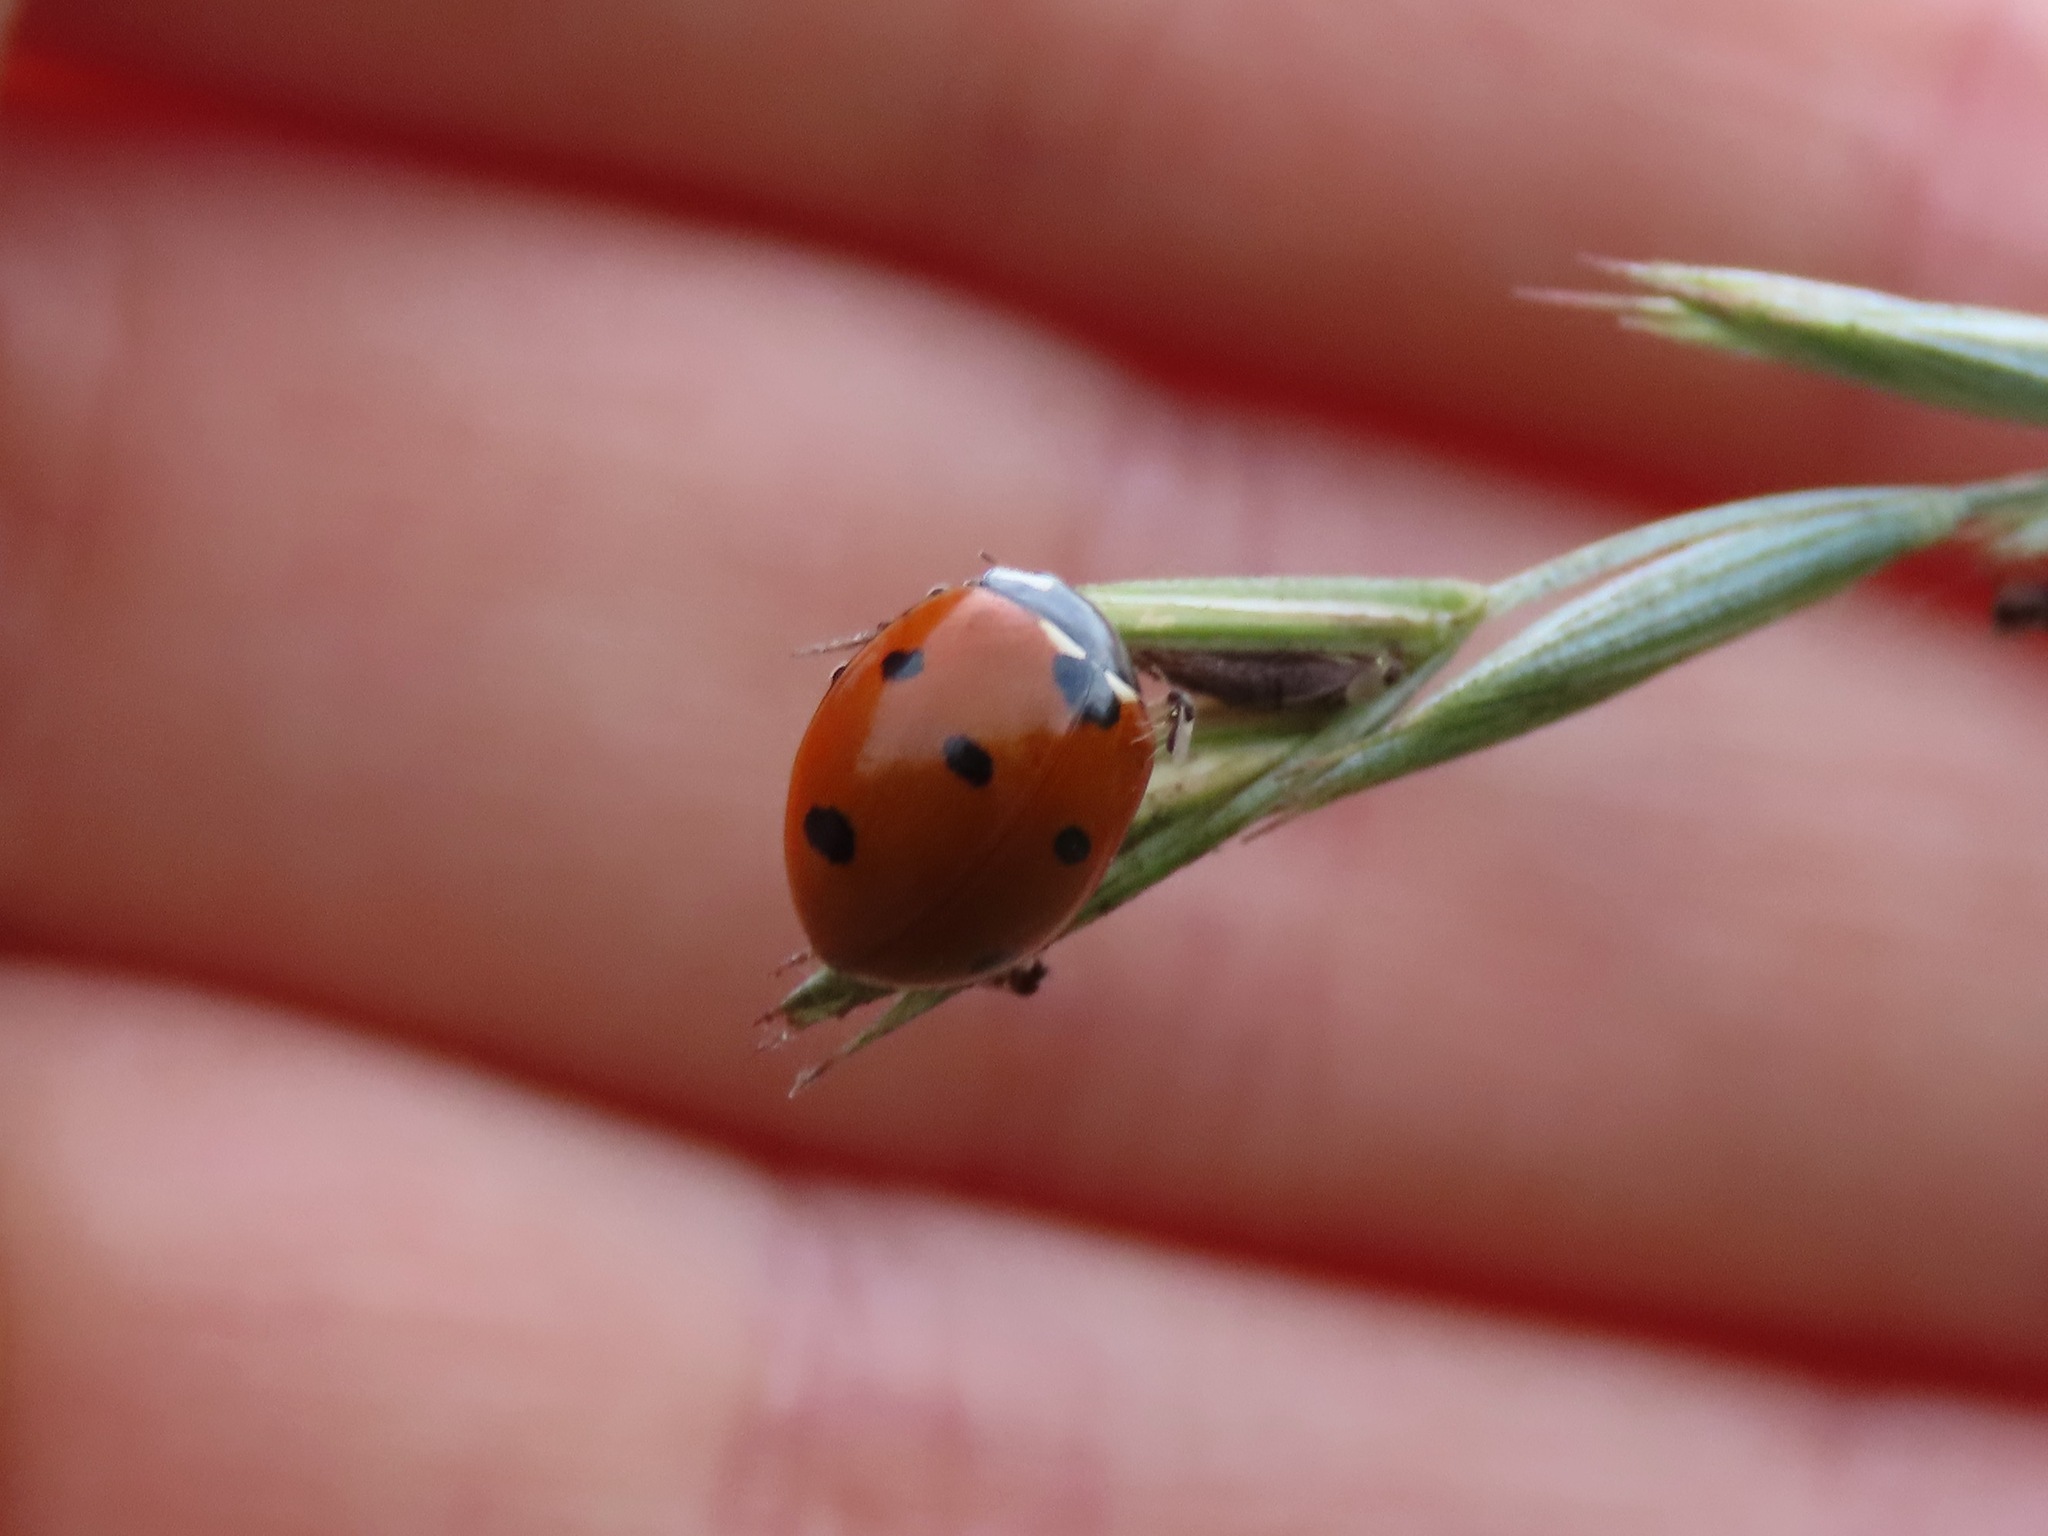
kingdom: Animalia
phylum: Arthropoda
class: Insecta
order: Coleoptera
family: Coccinellidae
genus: Coccinella
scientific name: Coccinella septempunctata
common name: Sevenspotted lady beetle
